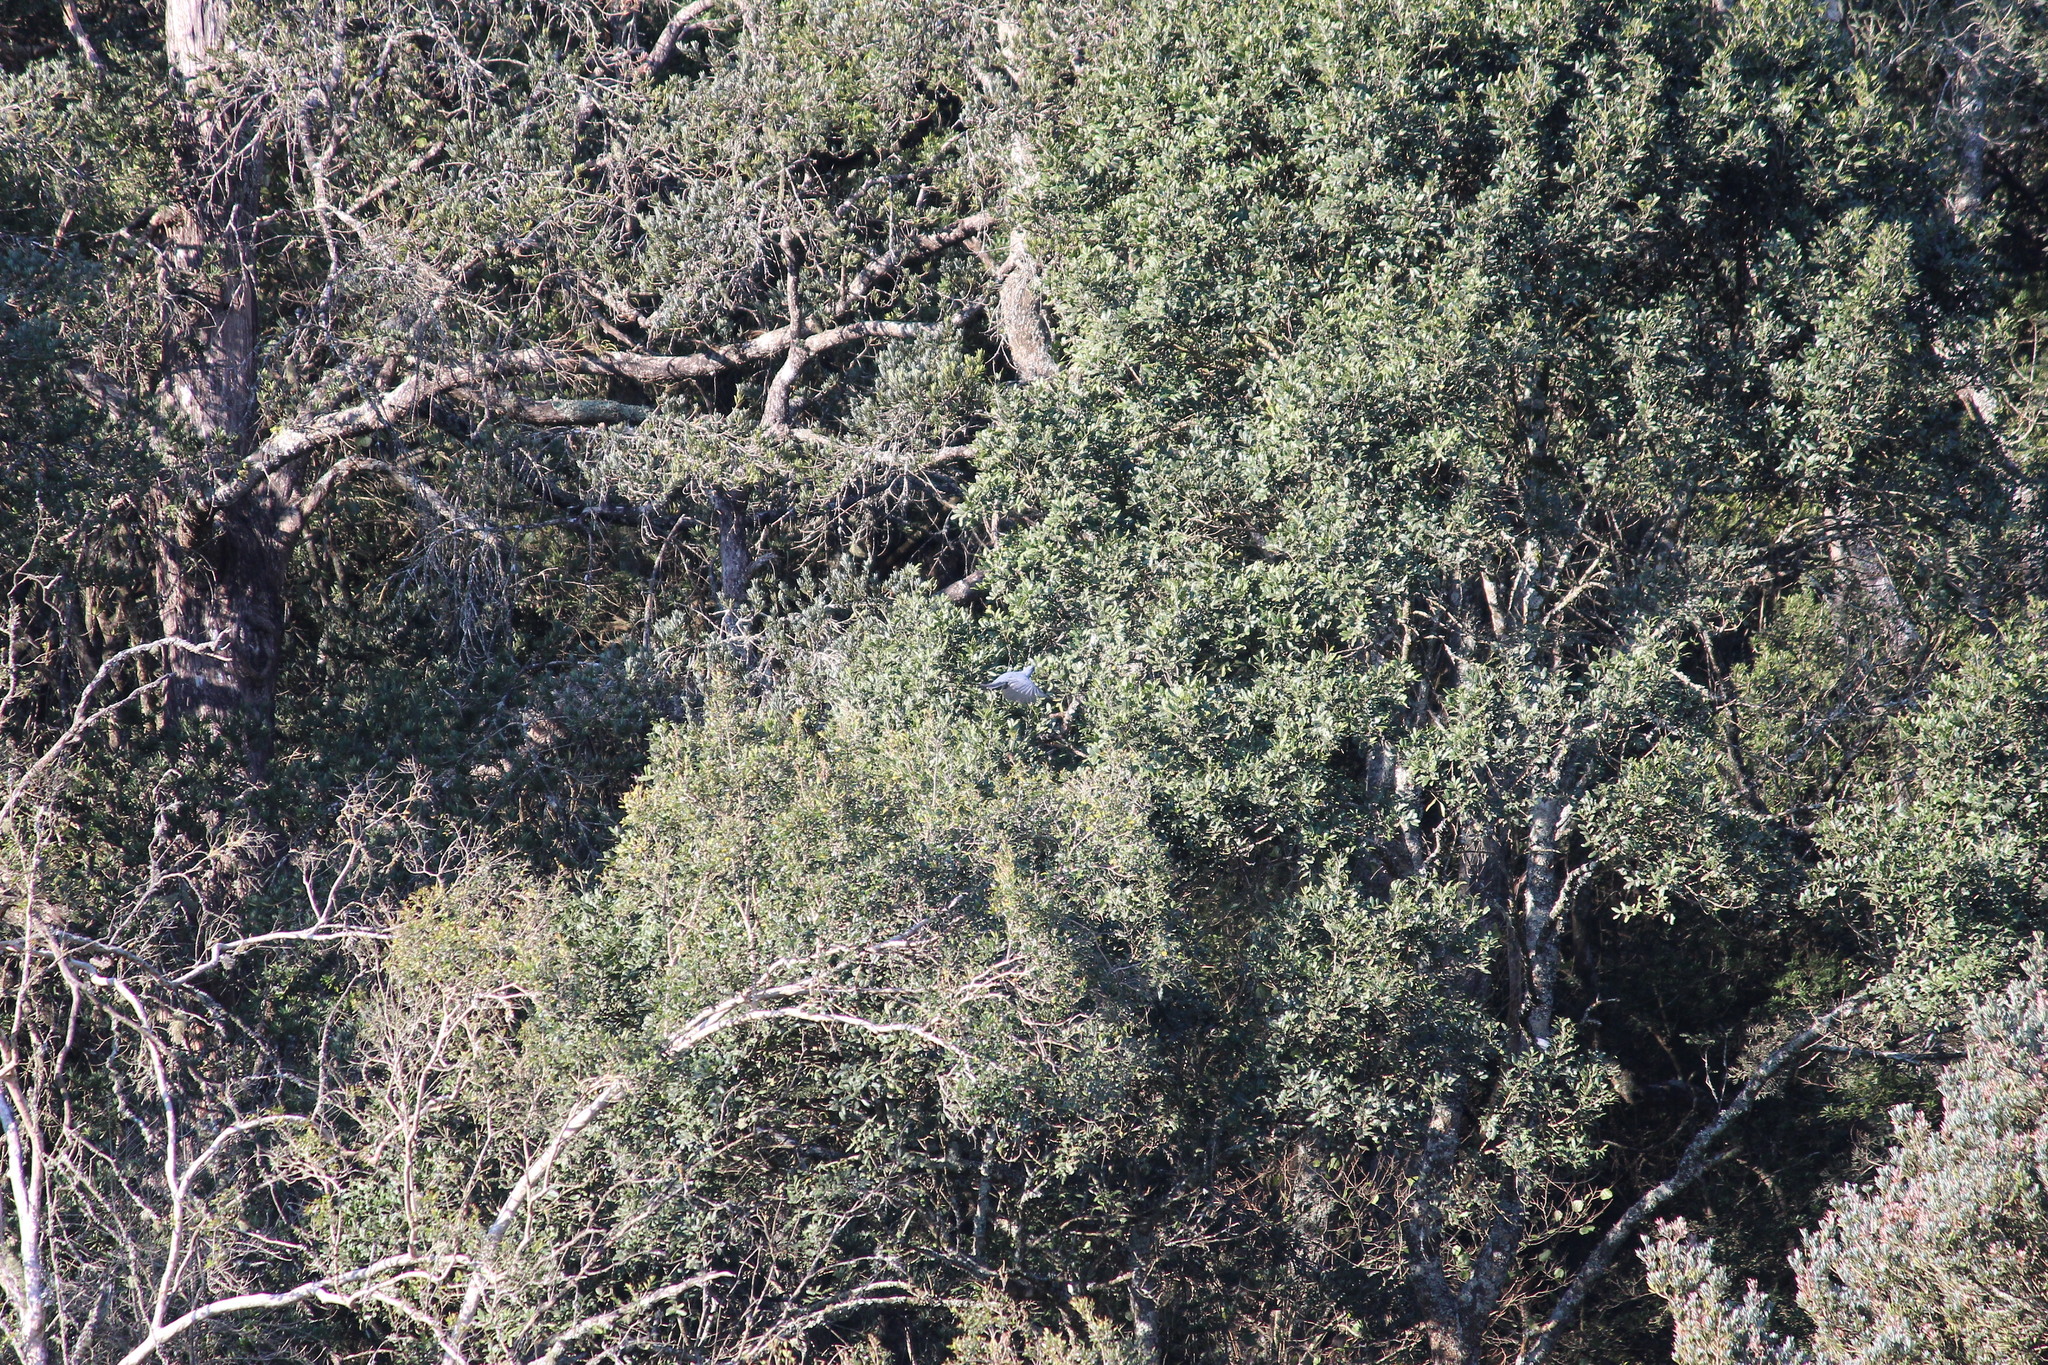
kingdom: Animalia
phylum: Chordata
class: Aves
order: Passeriformes
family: Campephagidae
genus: Coracina
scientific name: Coracina caesia
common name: Grey cuckooshrike
